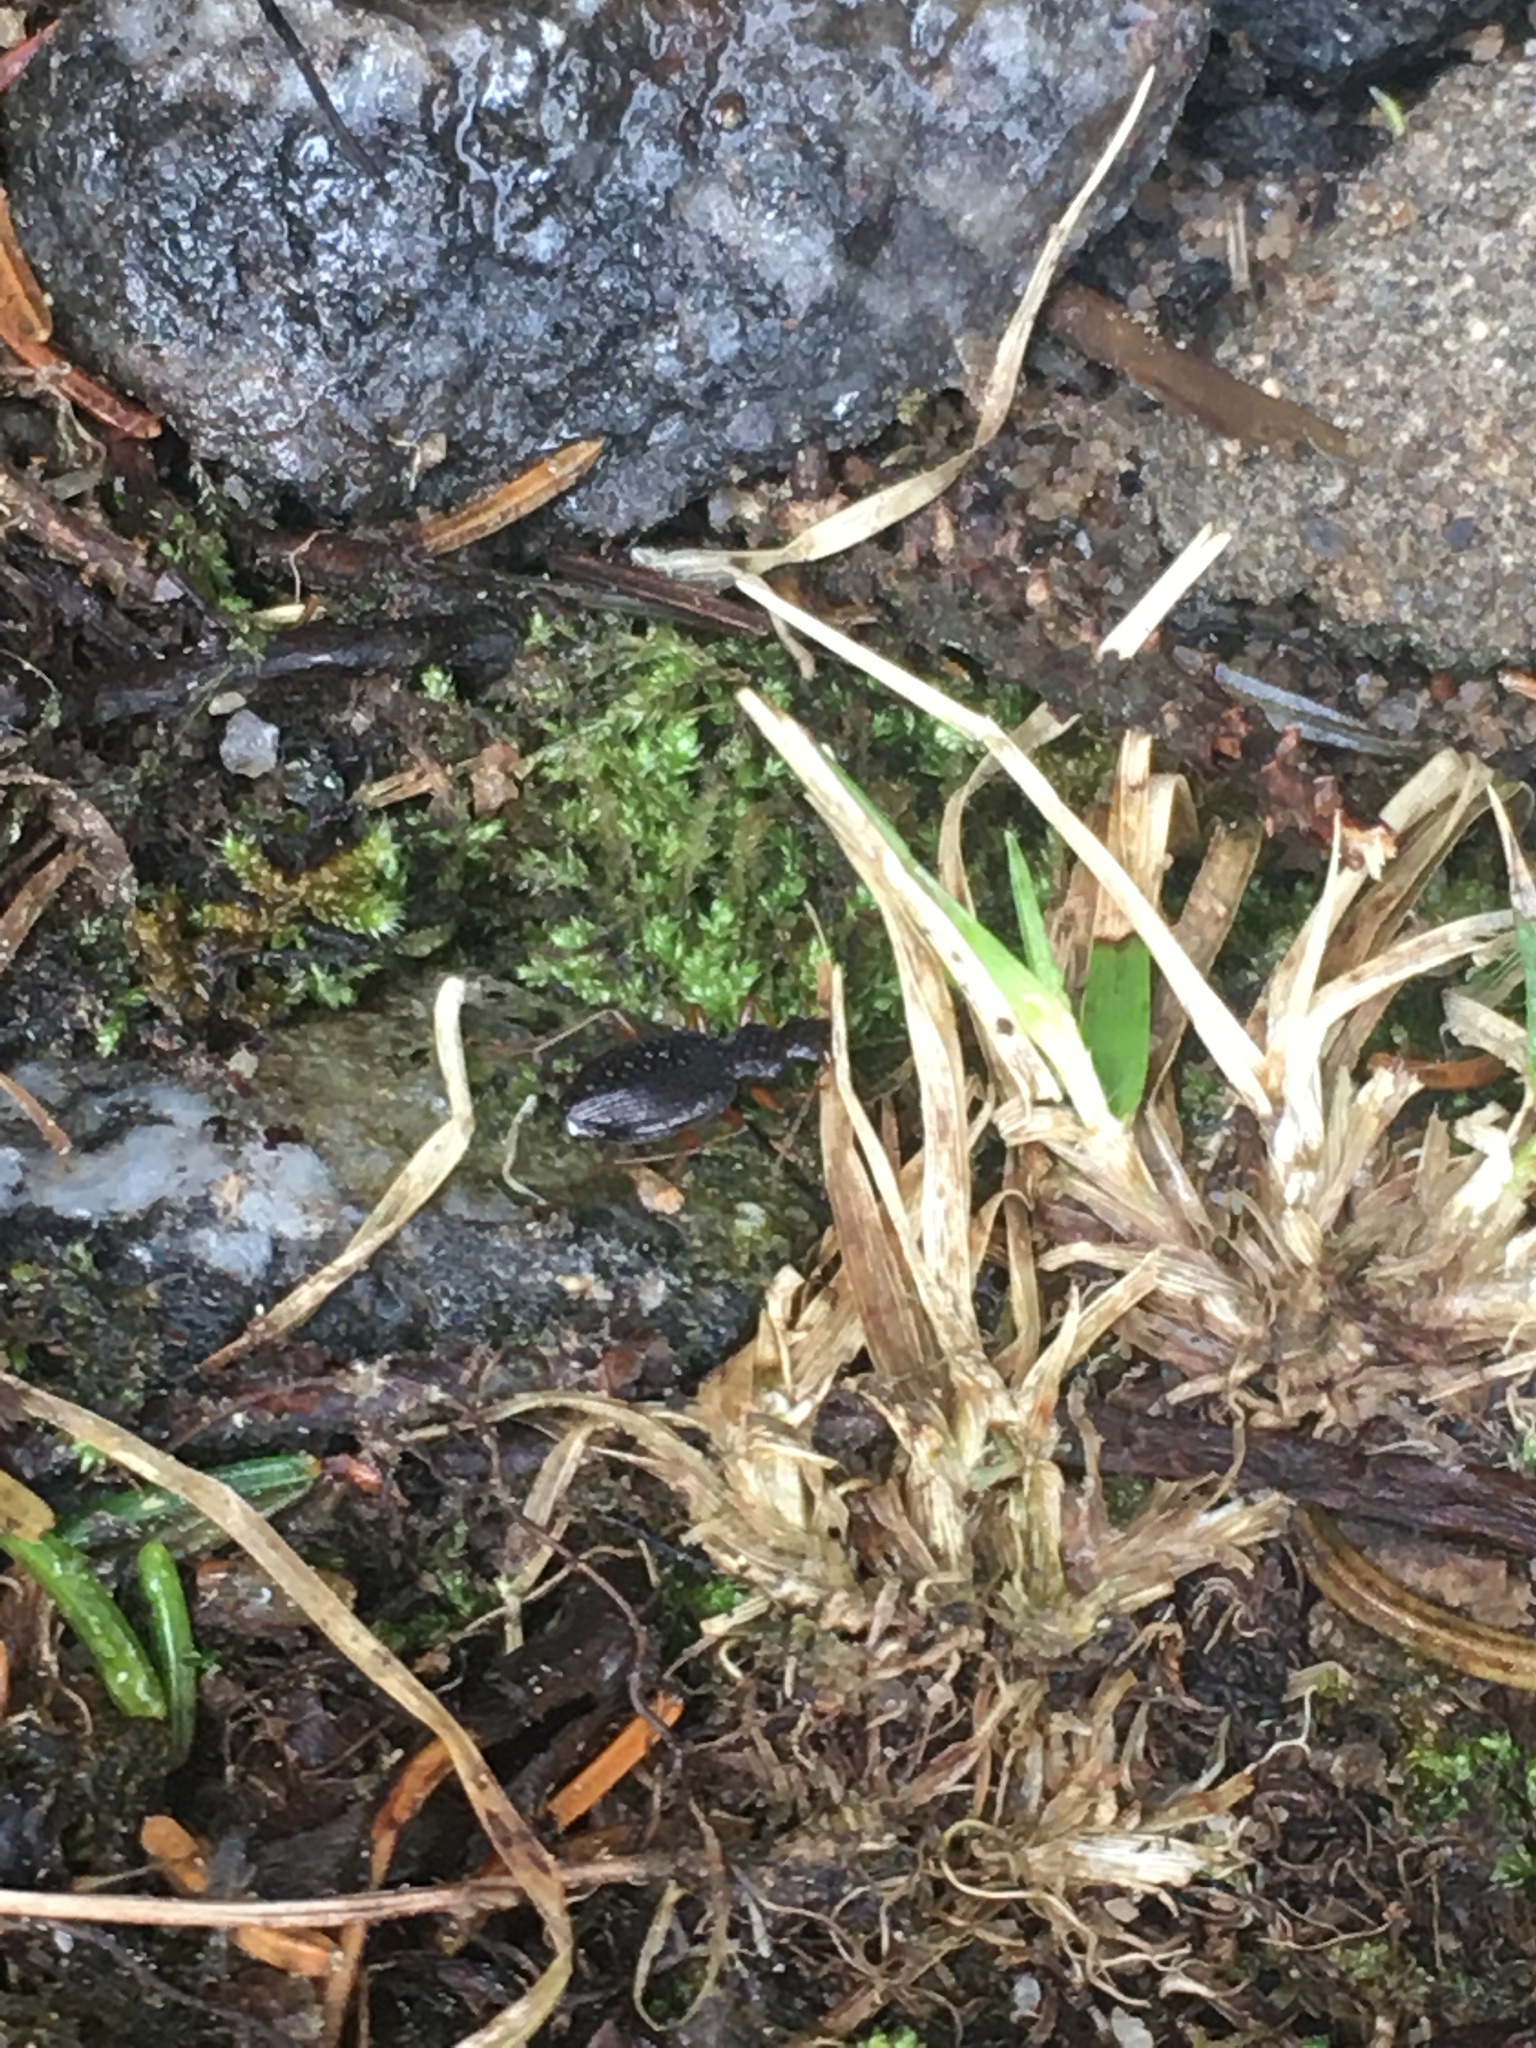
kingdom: Animalia
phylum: Arthropoda
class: Insecta
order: Coleoptera
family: Carabidae
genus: Platynus
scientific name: Platynus trifoveolatus
